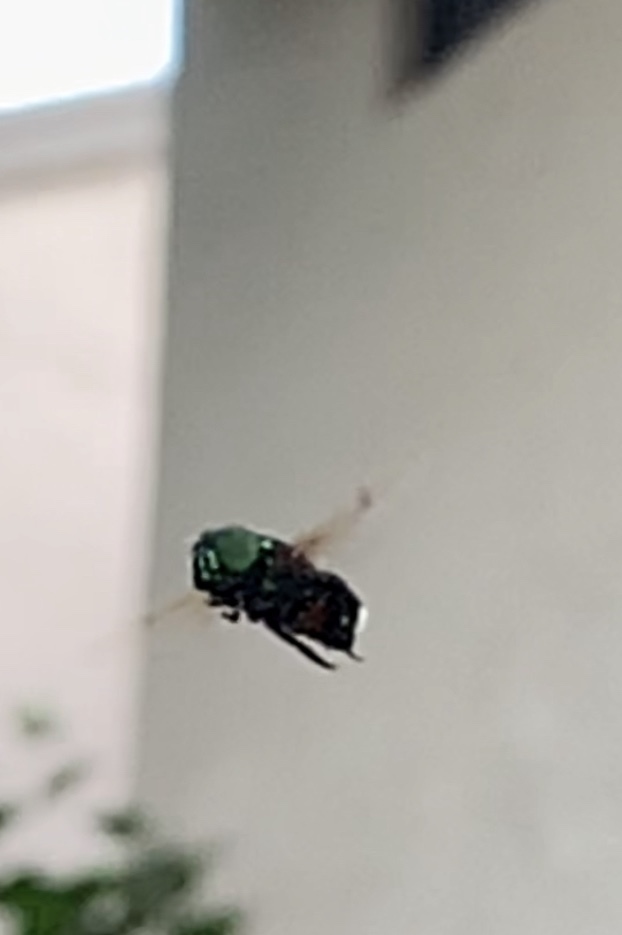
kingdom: Animalia
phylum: Arthropoda
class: Insecta
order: Diptera
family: Syrphidae
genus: Ornidia
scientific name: Ornidia obesa
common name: Syrphid fly
